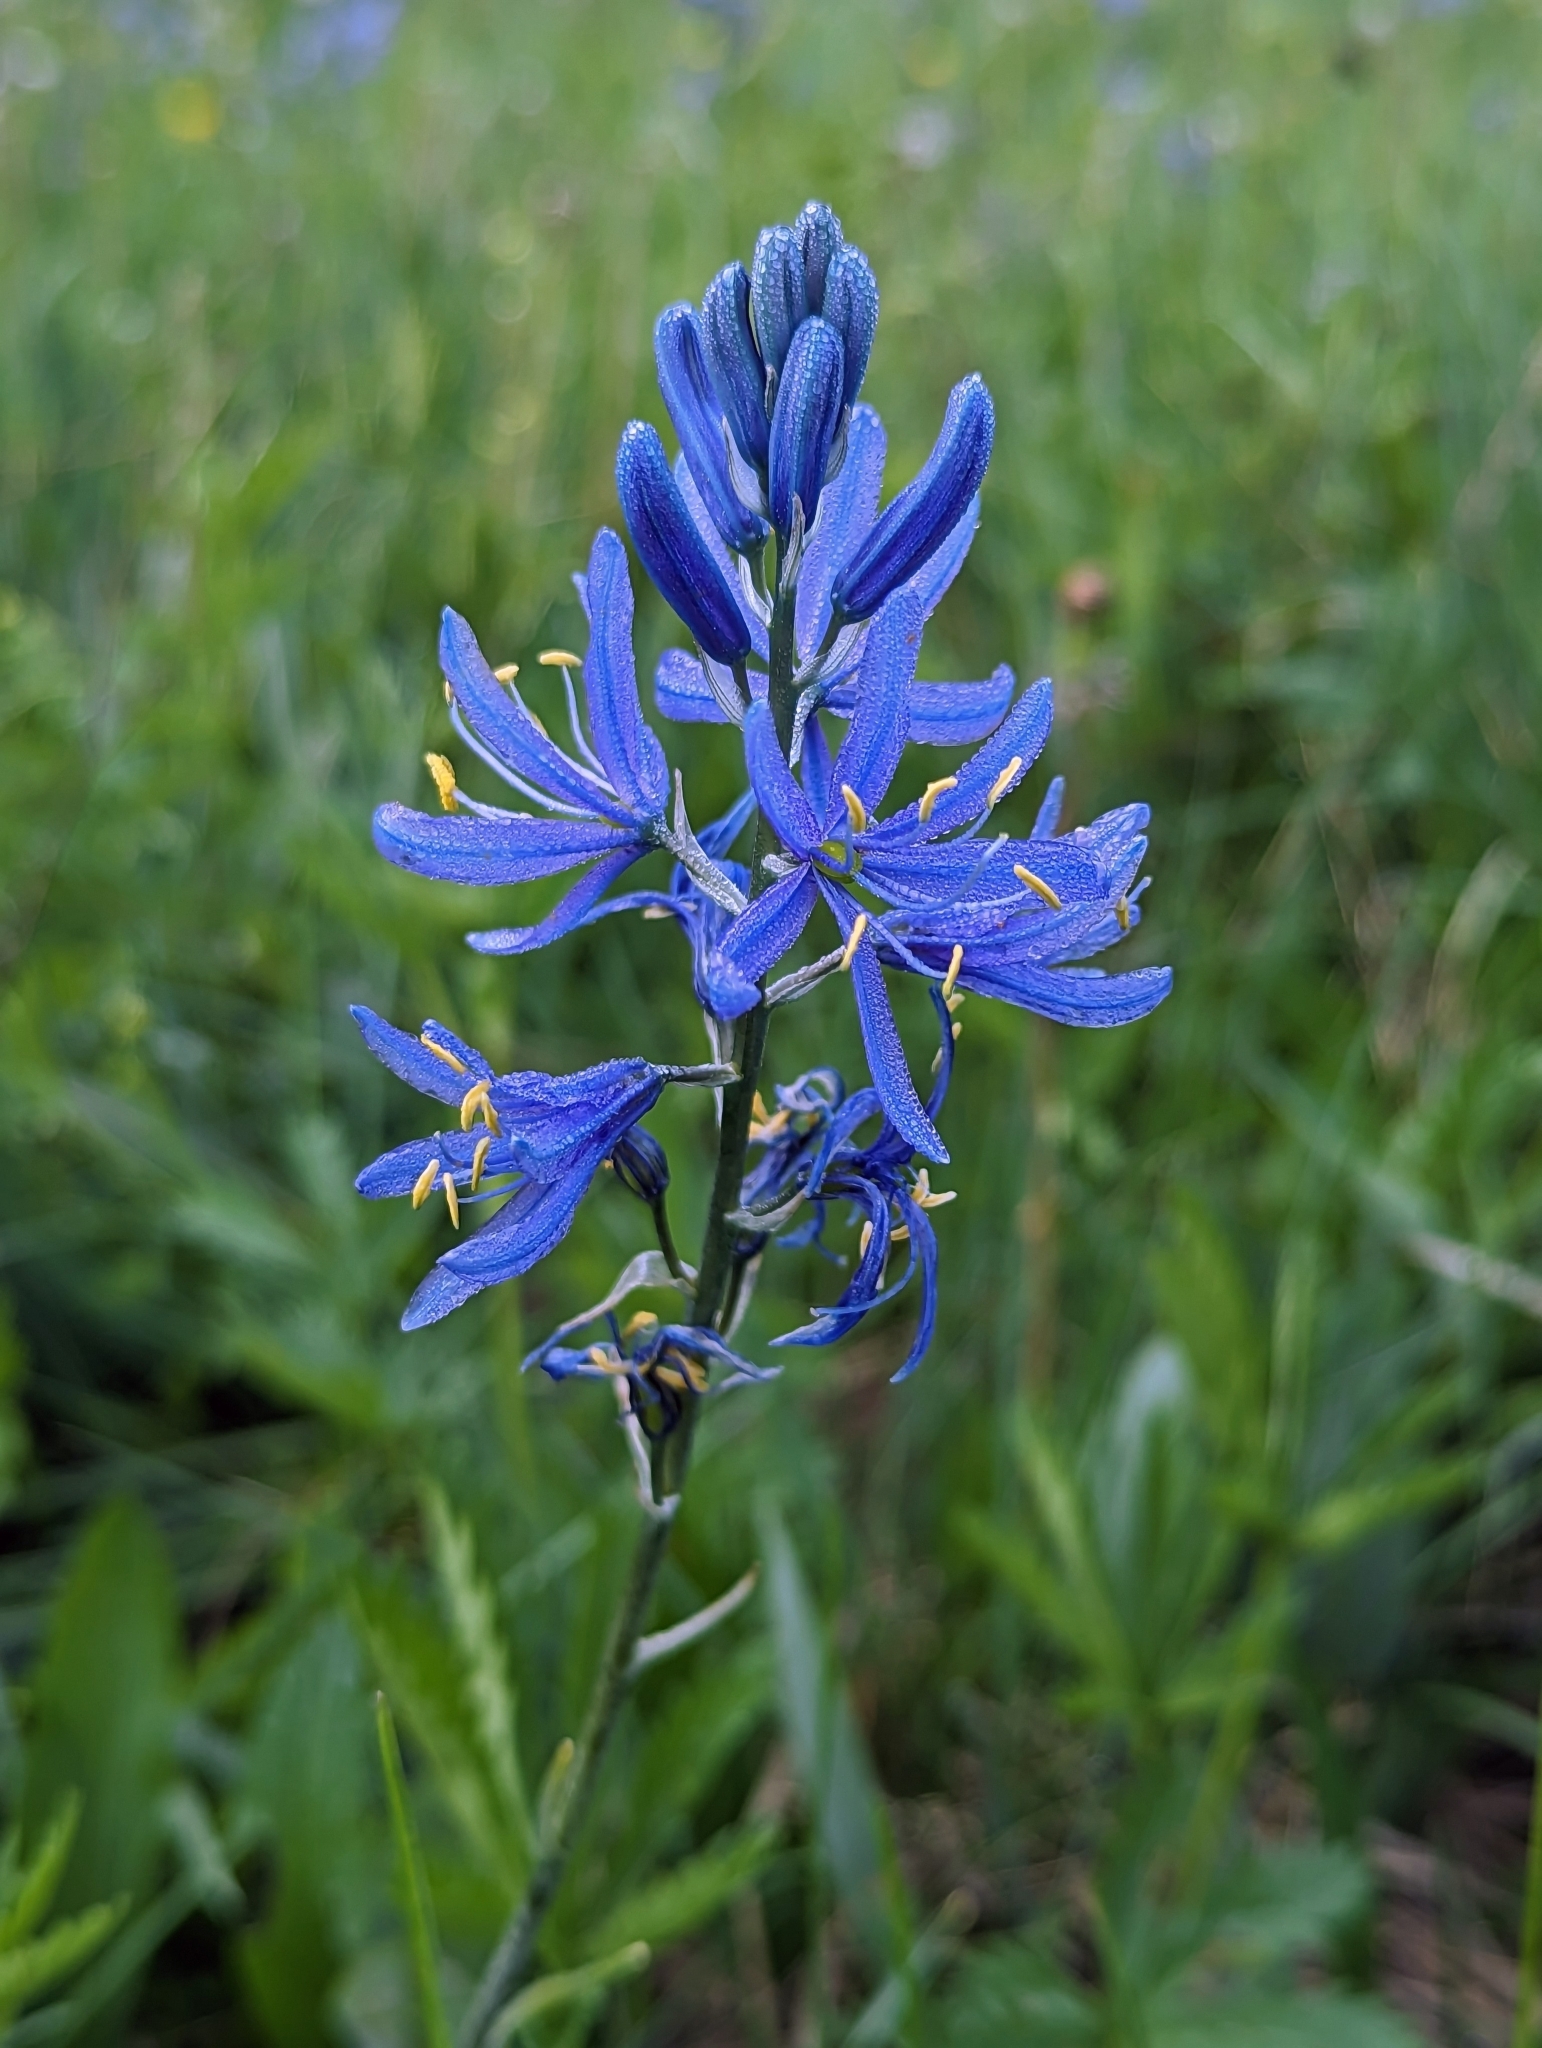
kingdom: Plantae
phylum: Tracheophyta
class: Liliopsida
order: Asparagales
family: Asparagaceae
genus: Camassia
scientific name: Camassia quamash
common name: Common camas
